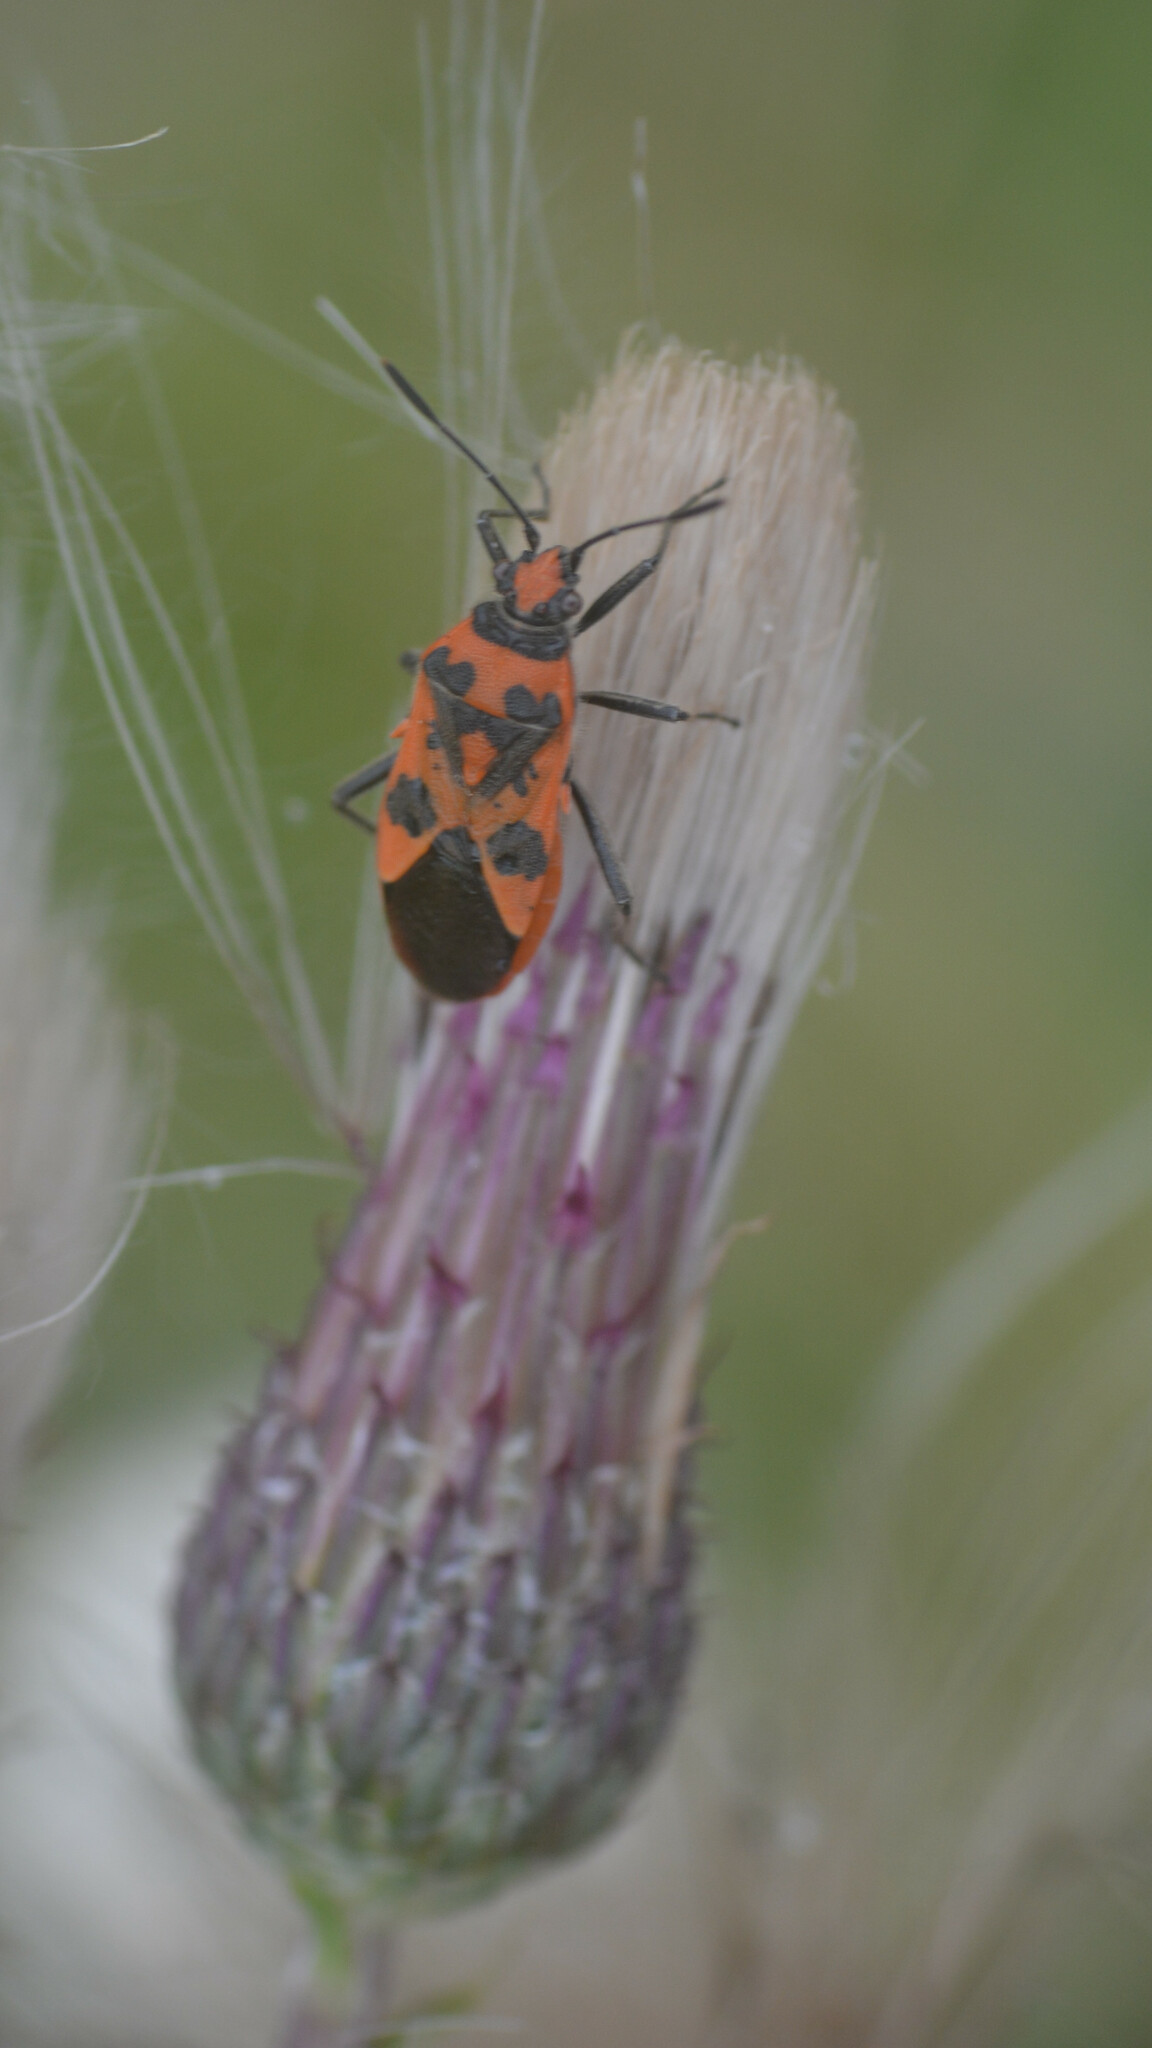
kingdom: Animalia
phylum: Arthropoda
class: Insecta
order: Hemiptera
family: Rhopalidae
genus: Corizus
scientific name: Corizus hyoscyami
